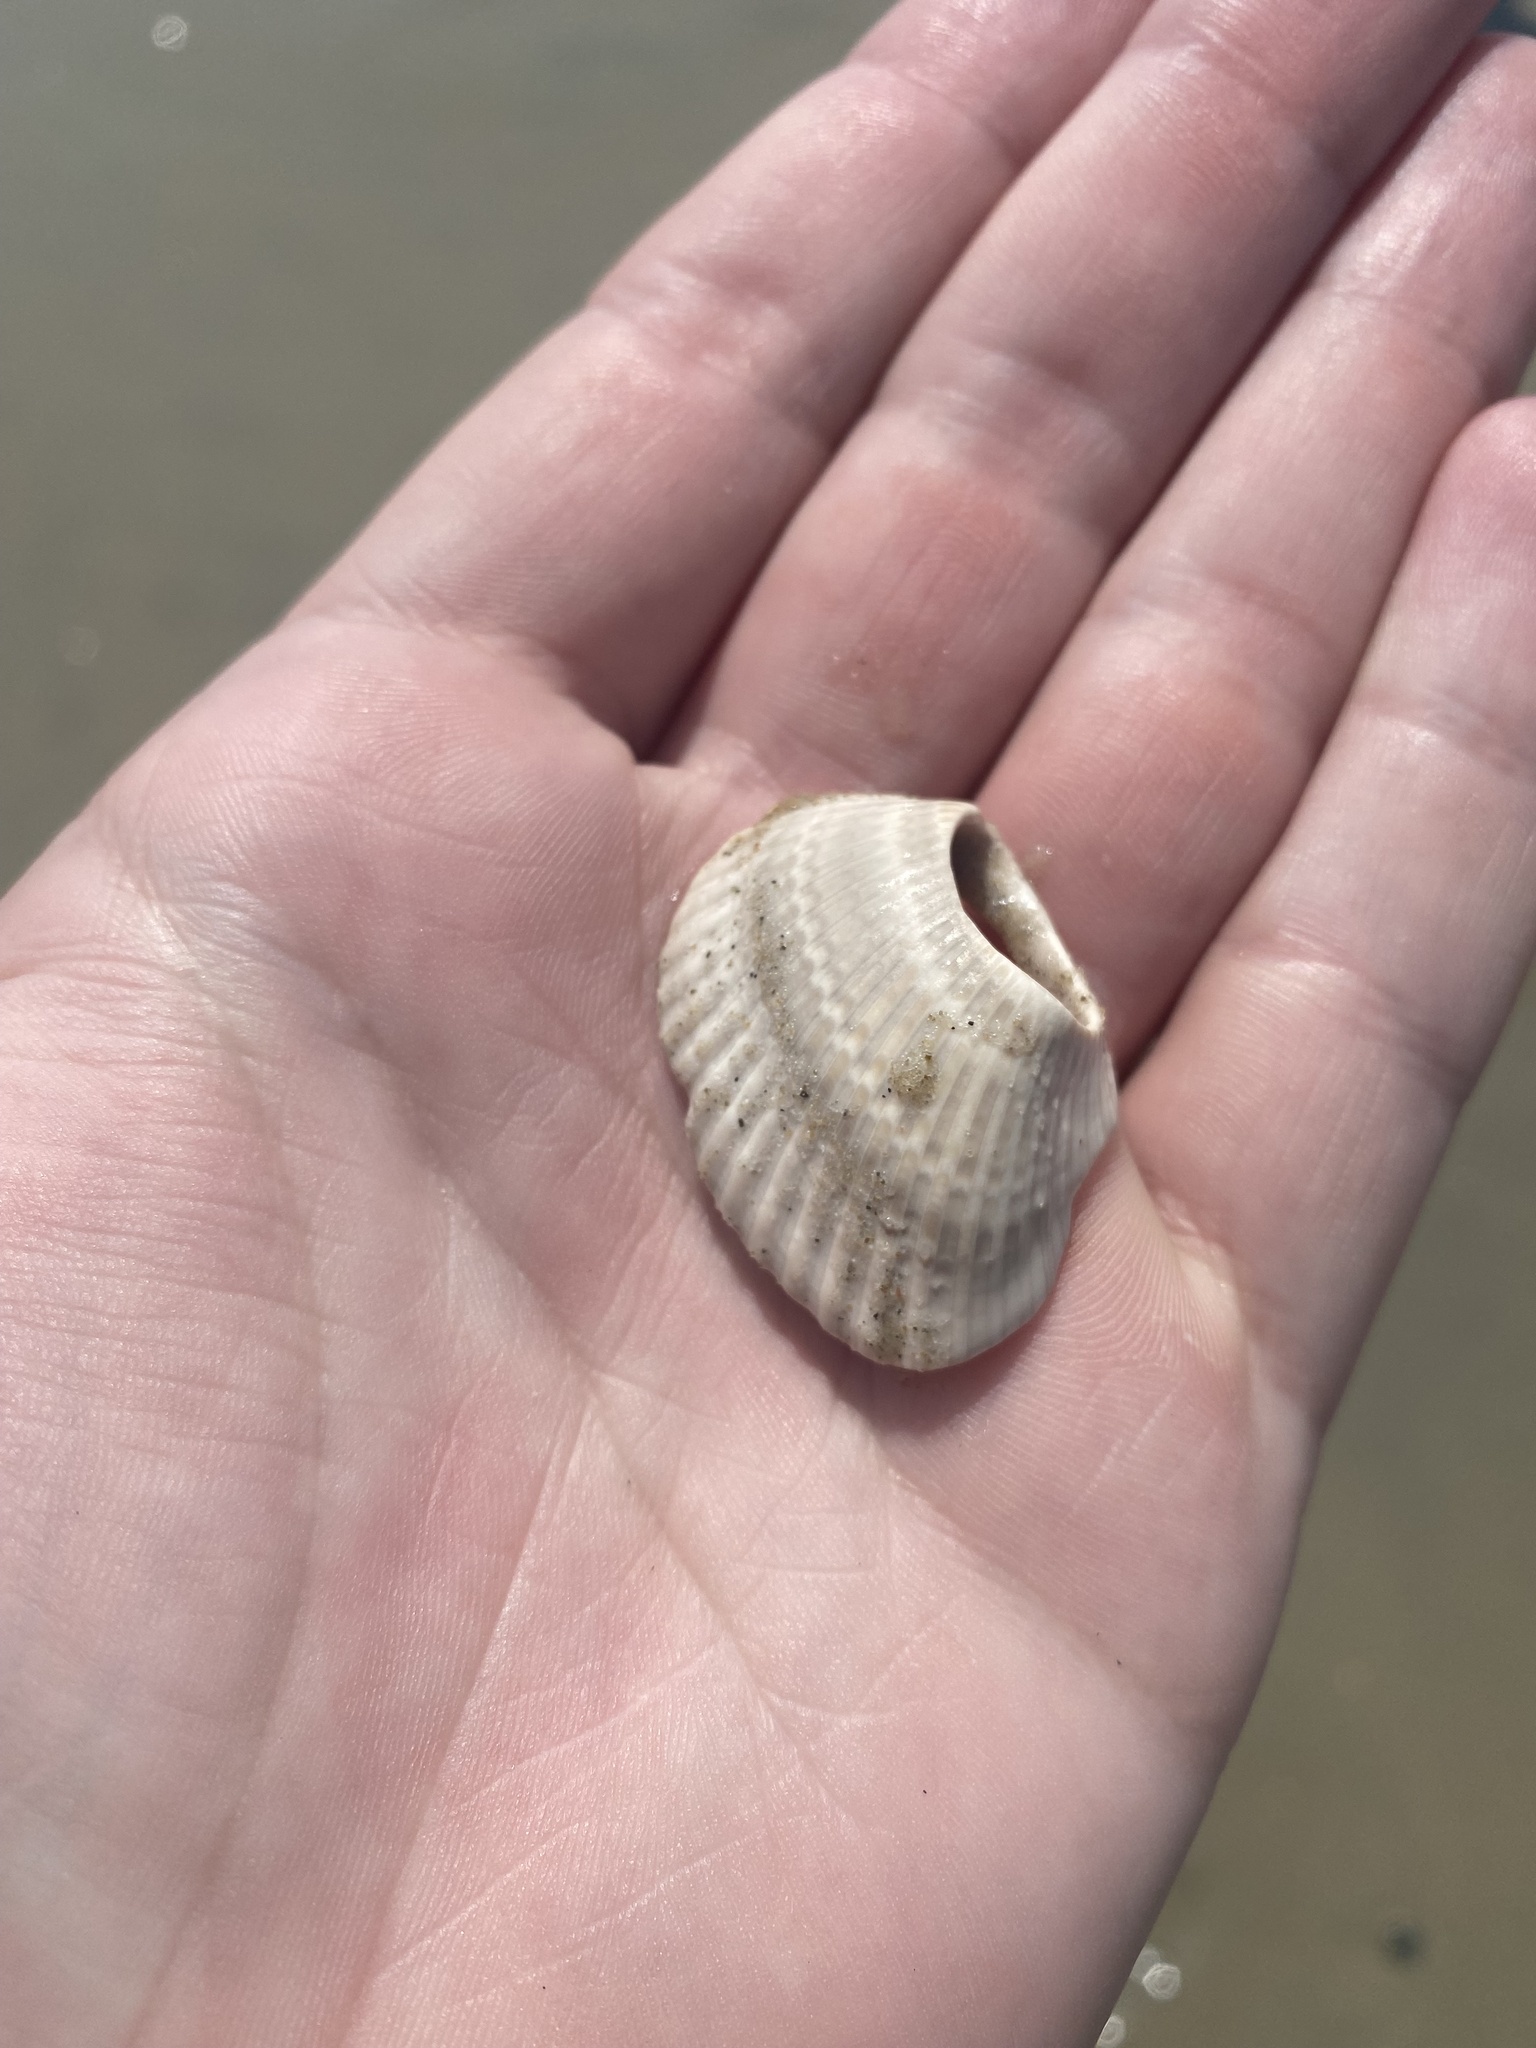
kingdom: Animalia
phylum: Mollusca
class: Bivalvia
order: Arcida
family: Noetiidae
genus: Noetia
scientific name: Noetia ponderosa
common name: Ponderous ark
